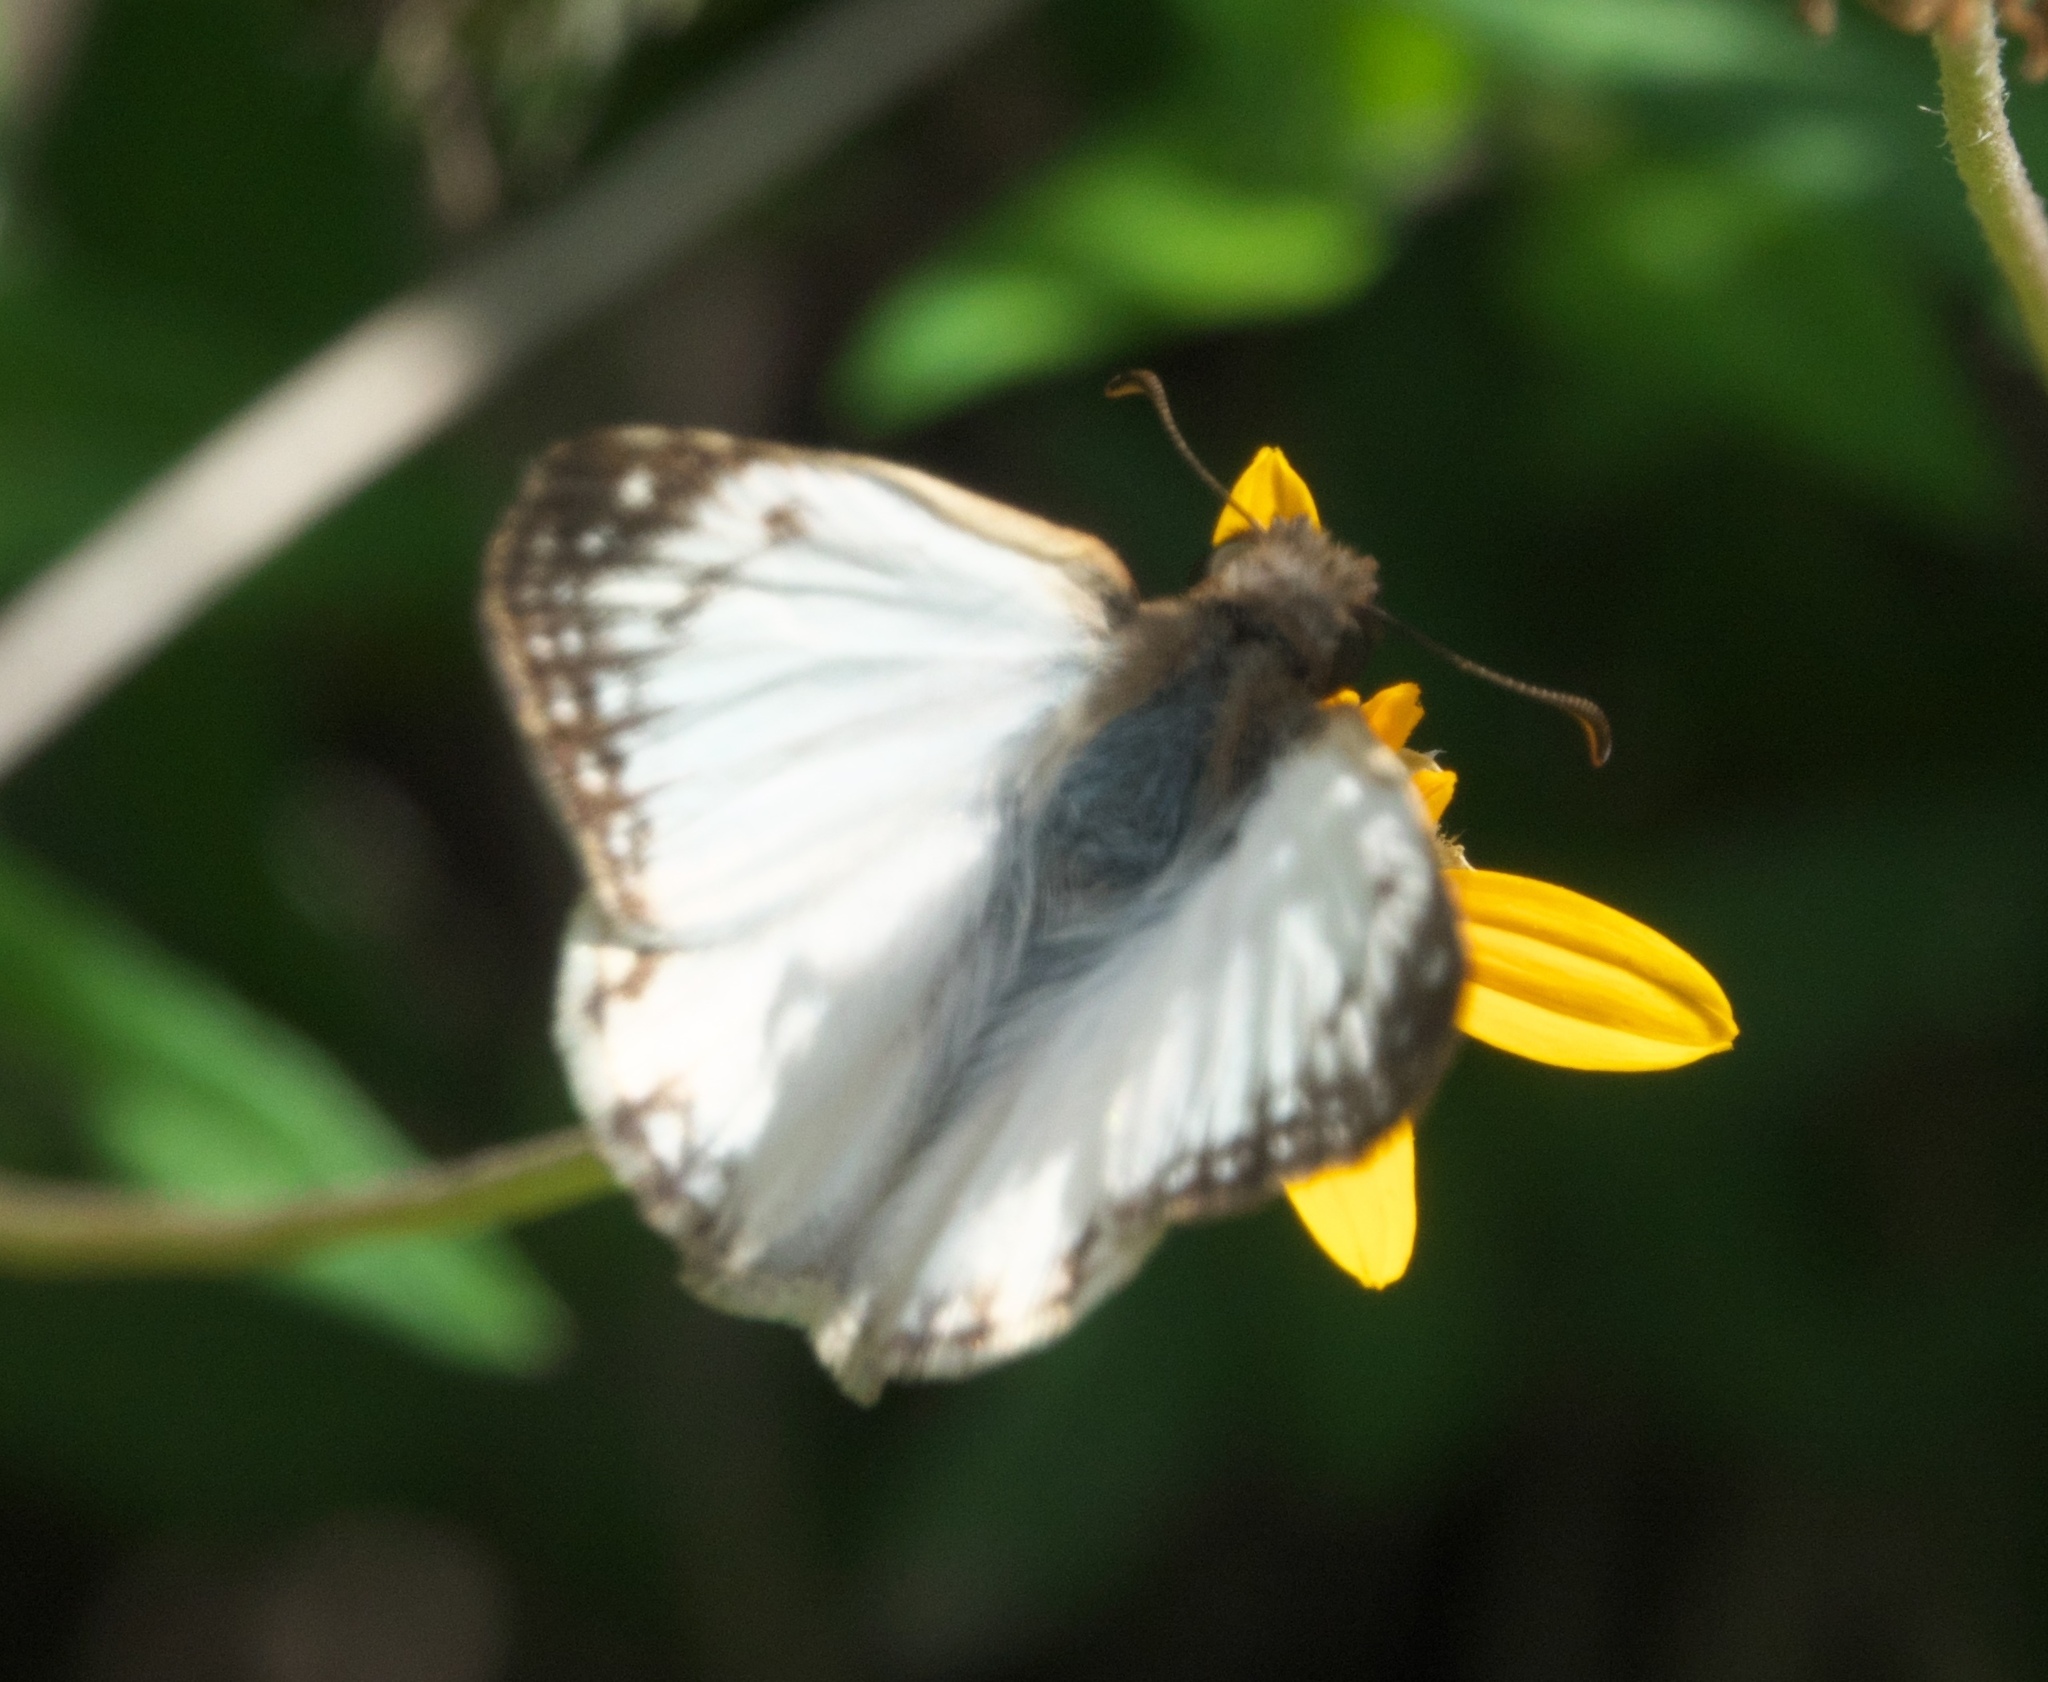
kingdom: Animalia
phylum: Arthropoda
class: Insecta
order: Lepidoptera
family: Hesperiidae
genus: Heliopetes
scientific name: Heliopetes laviana
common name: Laviana white-skipper
